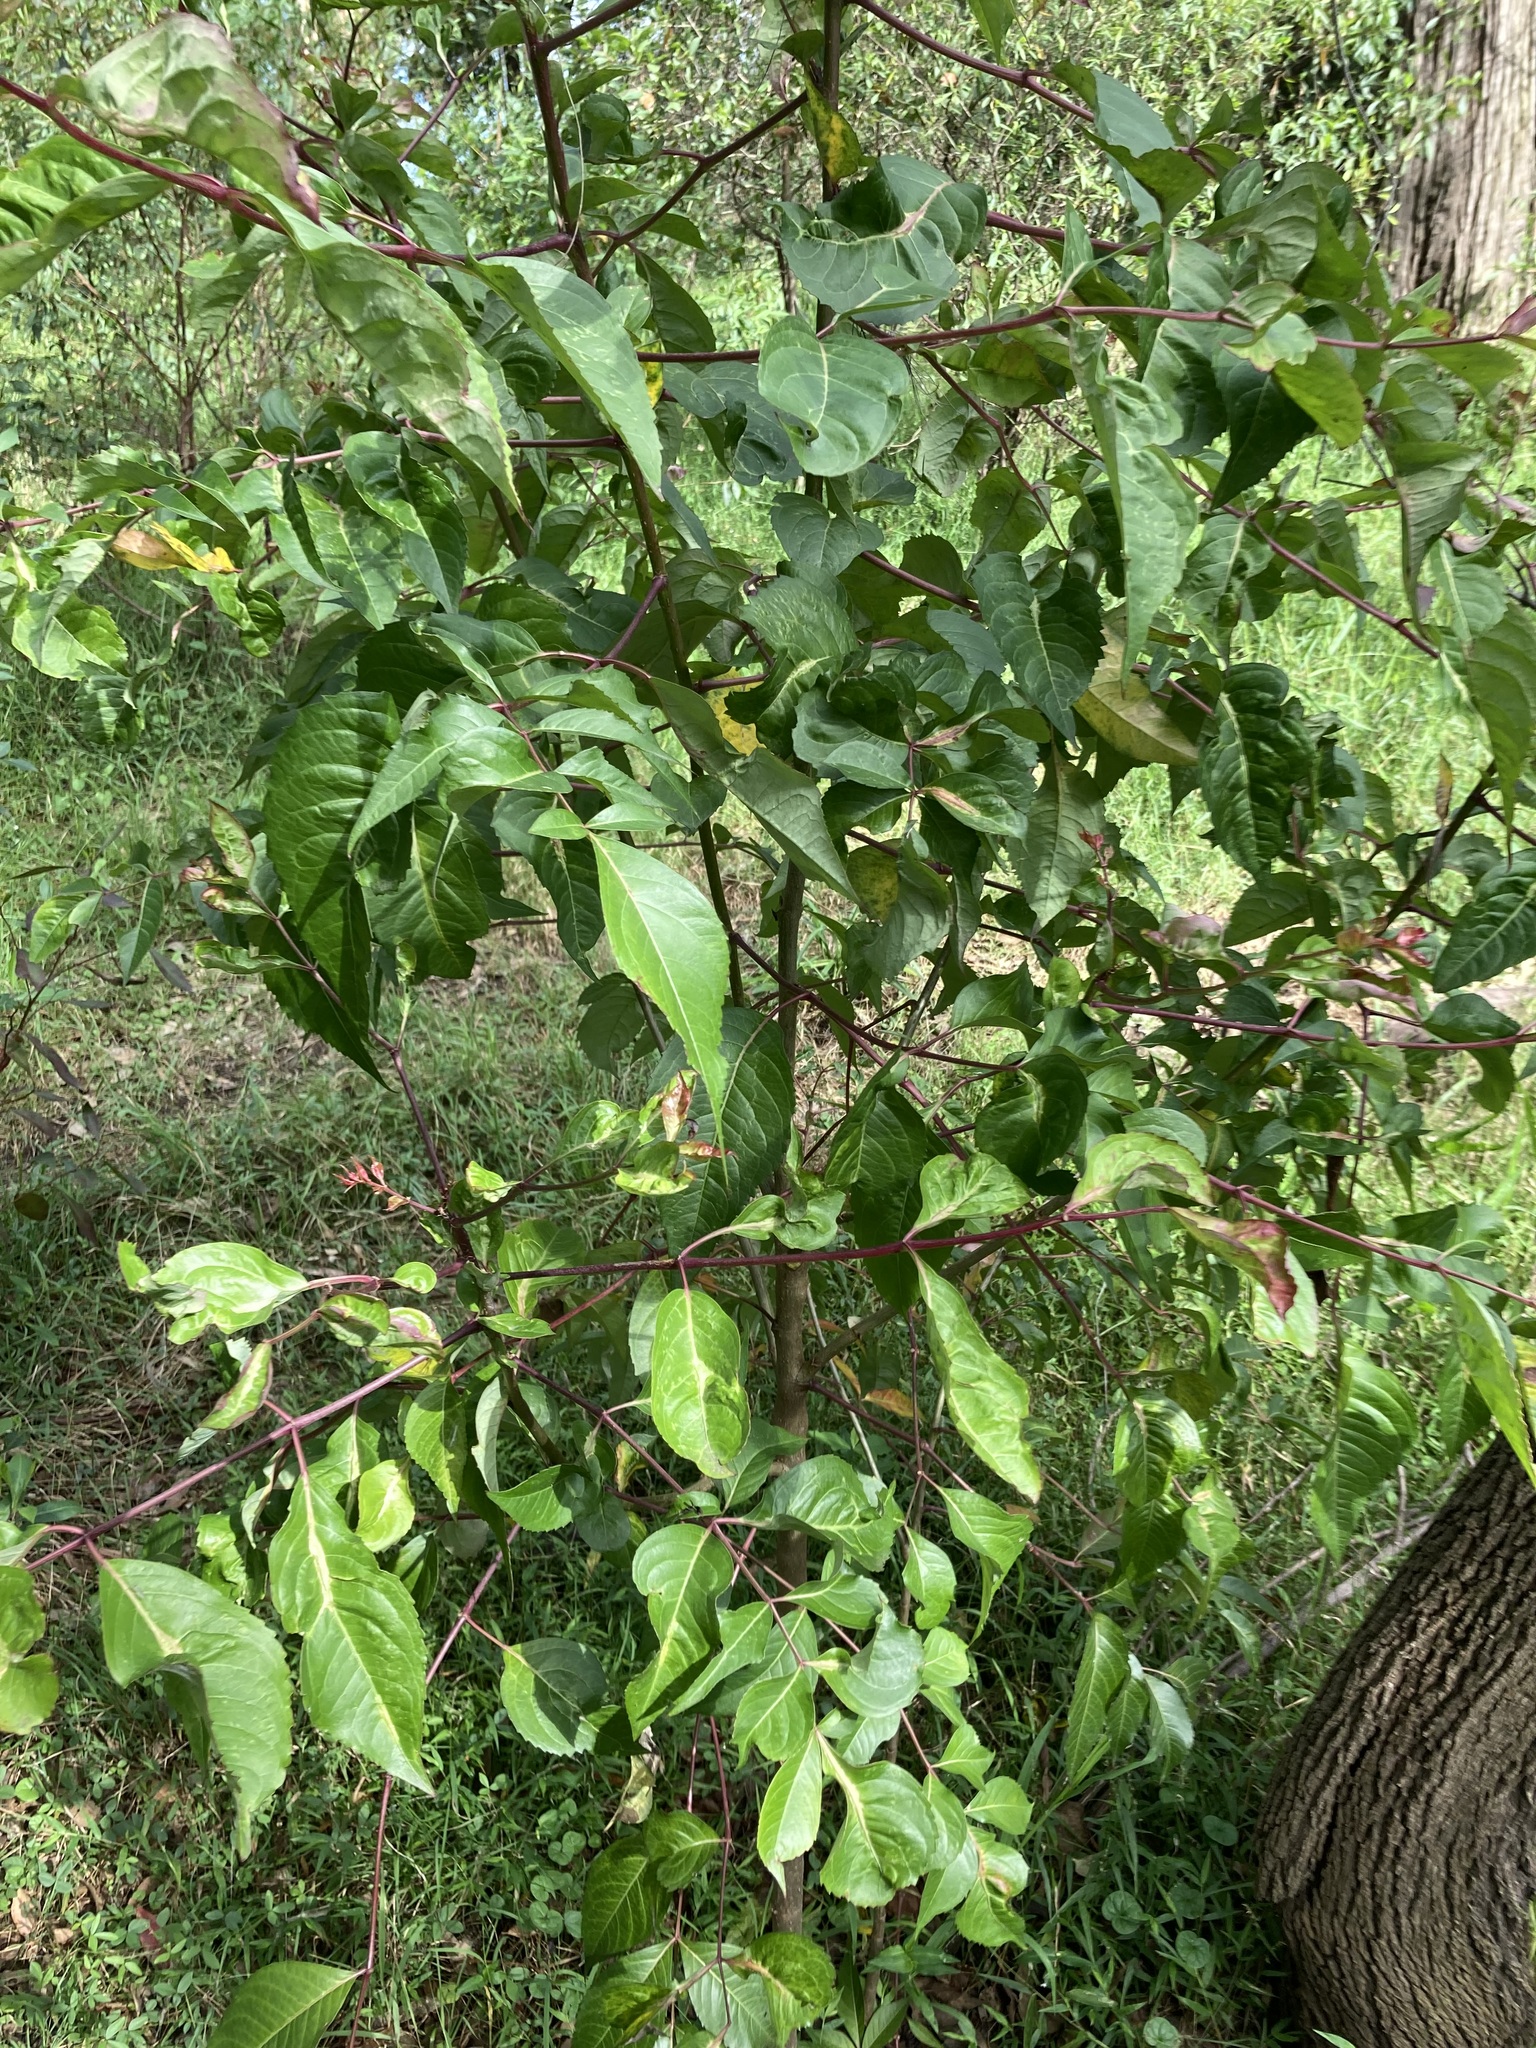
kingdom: Plantae
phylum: Tracheophyta
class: Magnoliopsida
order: Apiales
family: Araliaceae
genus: Polyscias
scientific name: Polyscias sambucifolia
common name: Elderberry-ash
